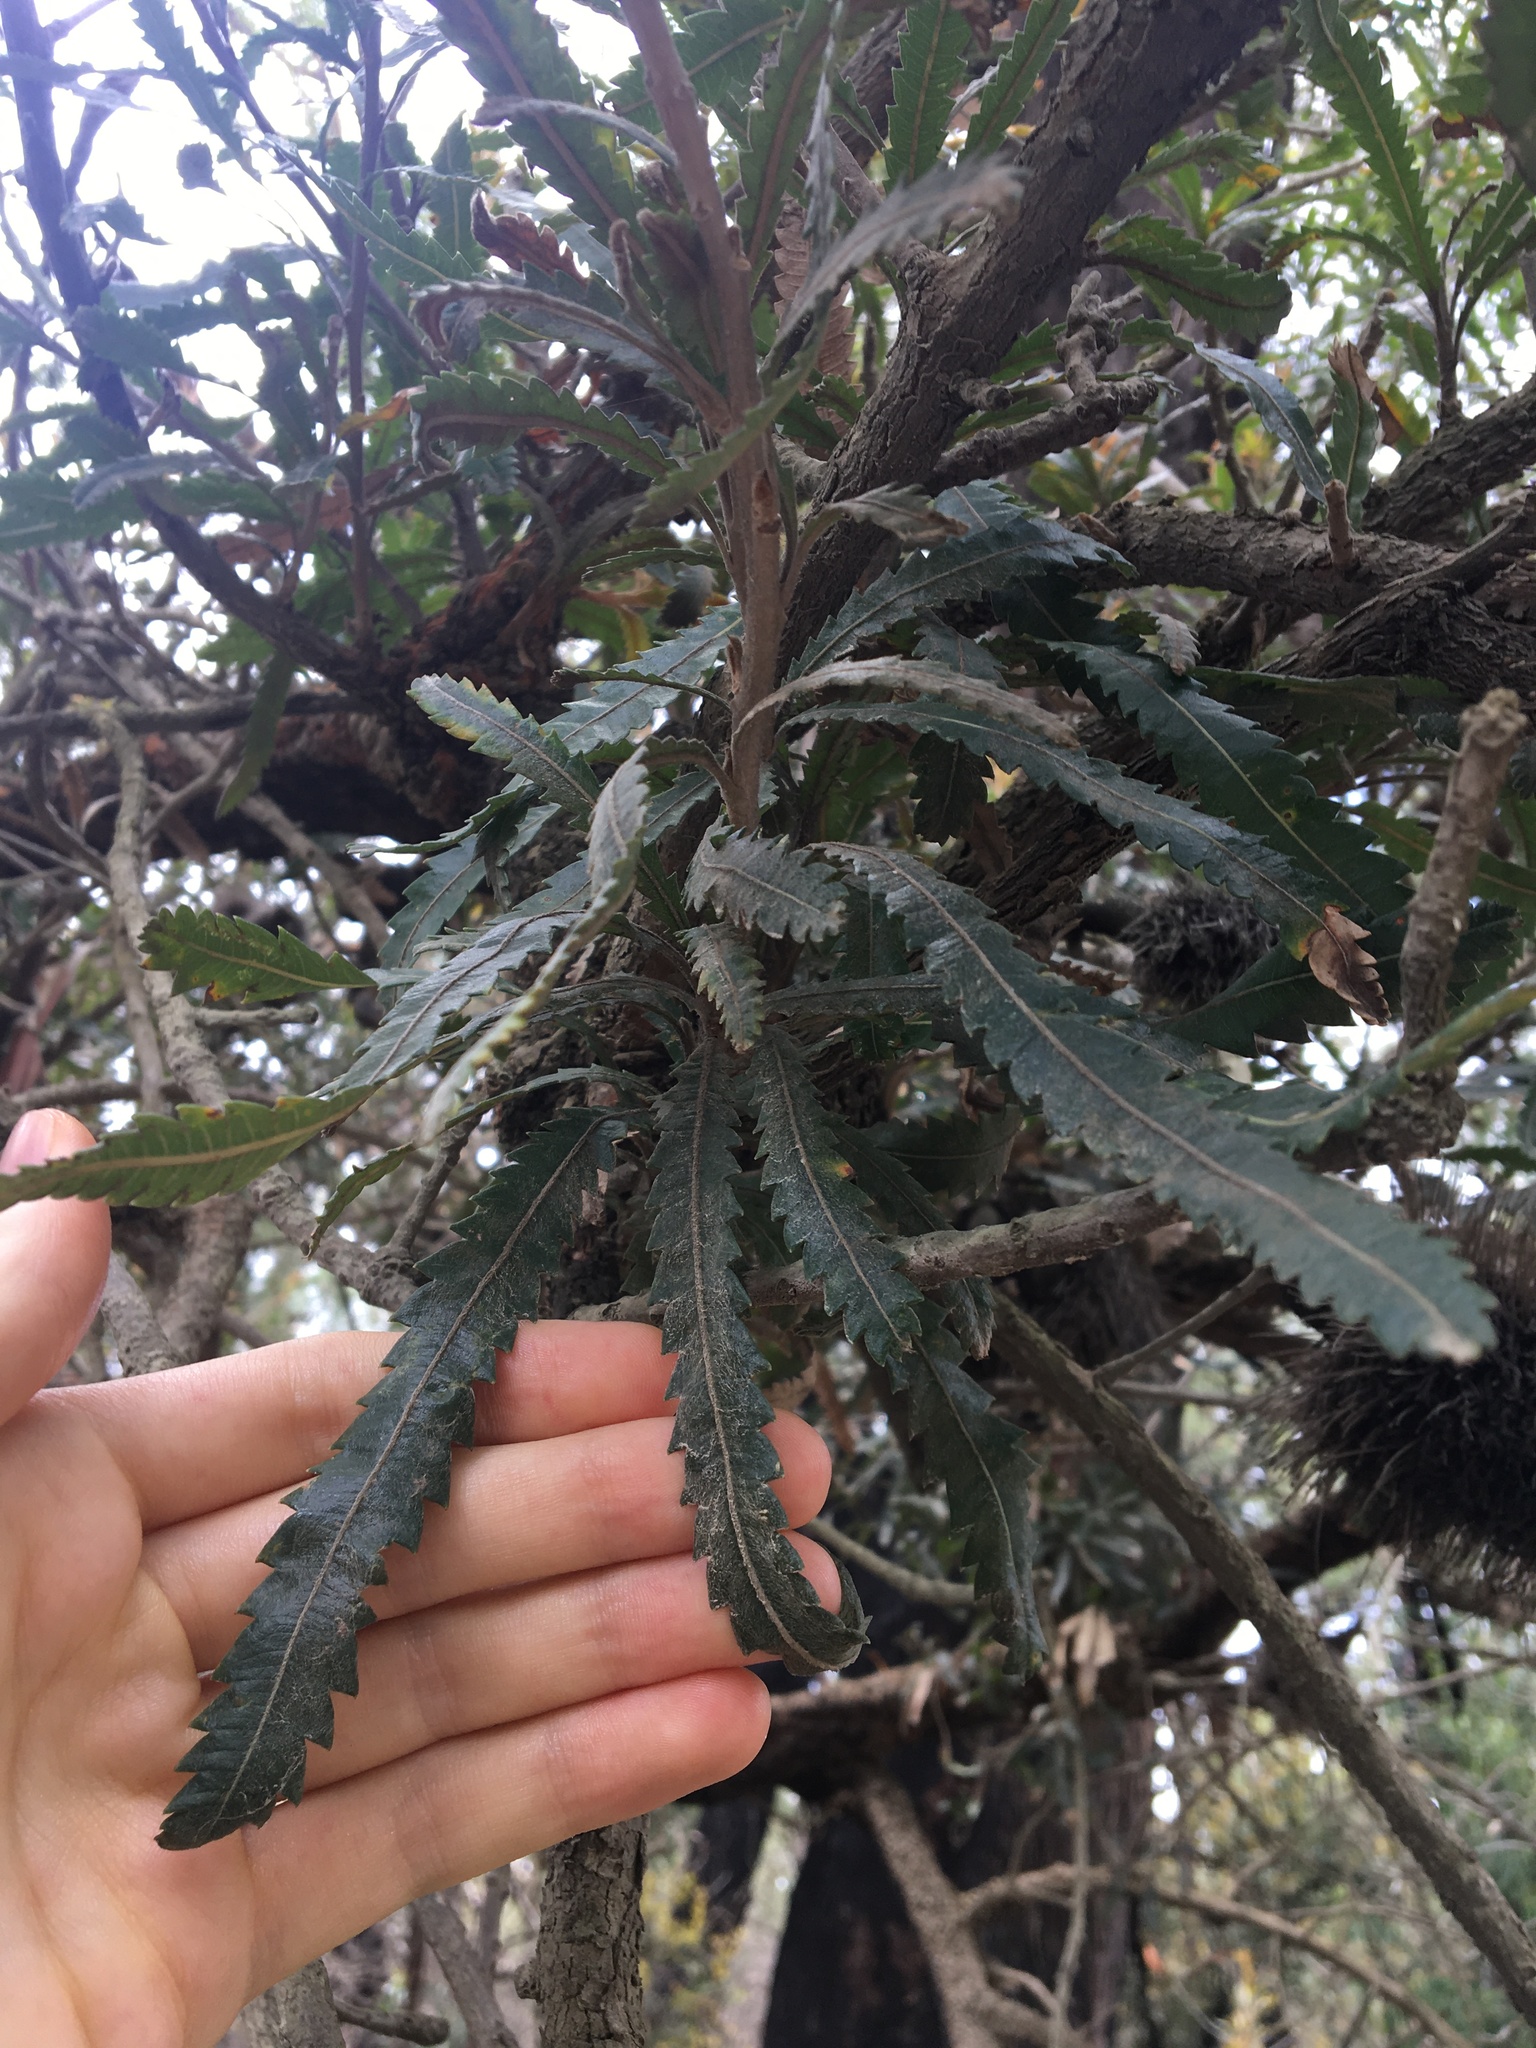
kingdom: Plantae
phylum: Tracheophyta
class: Magnoliopsida
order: Proteales
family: Proteaceae
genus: Banksia
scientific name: Banksia serrata
